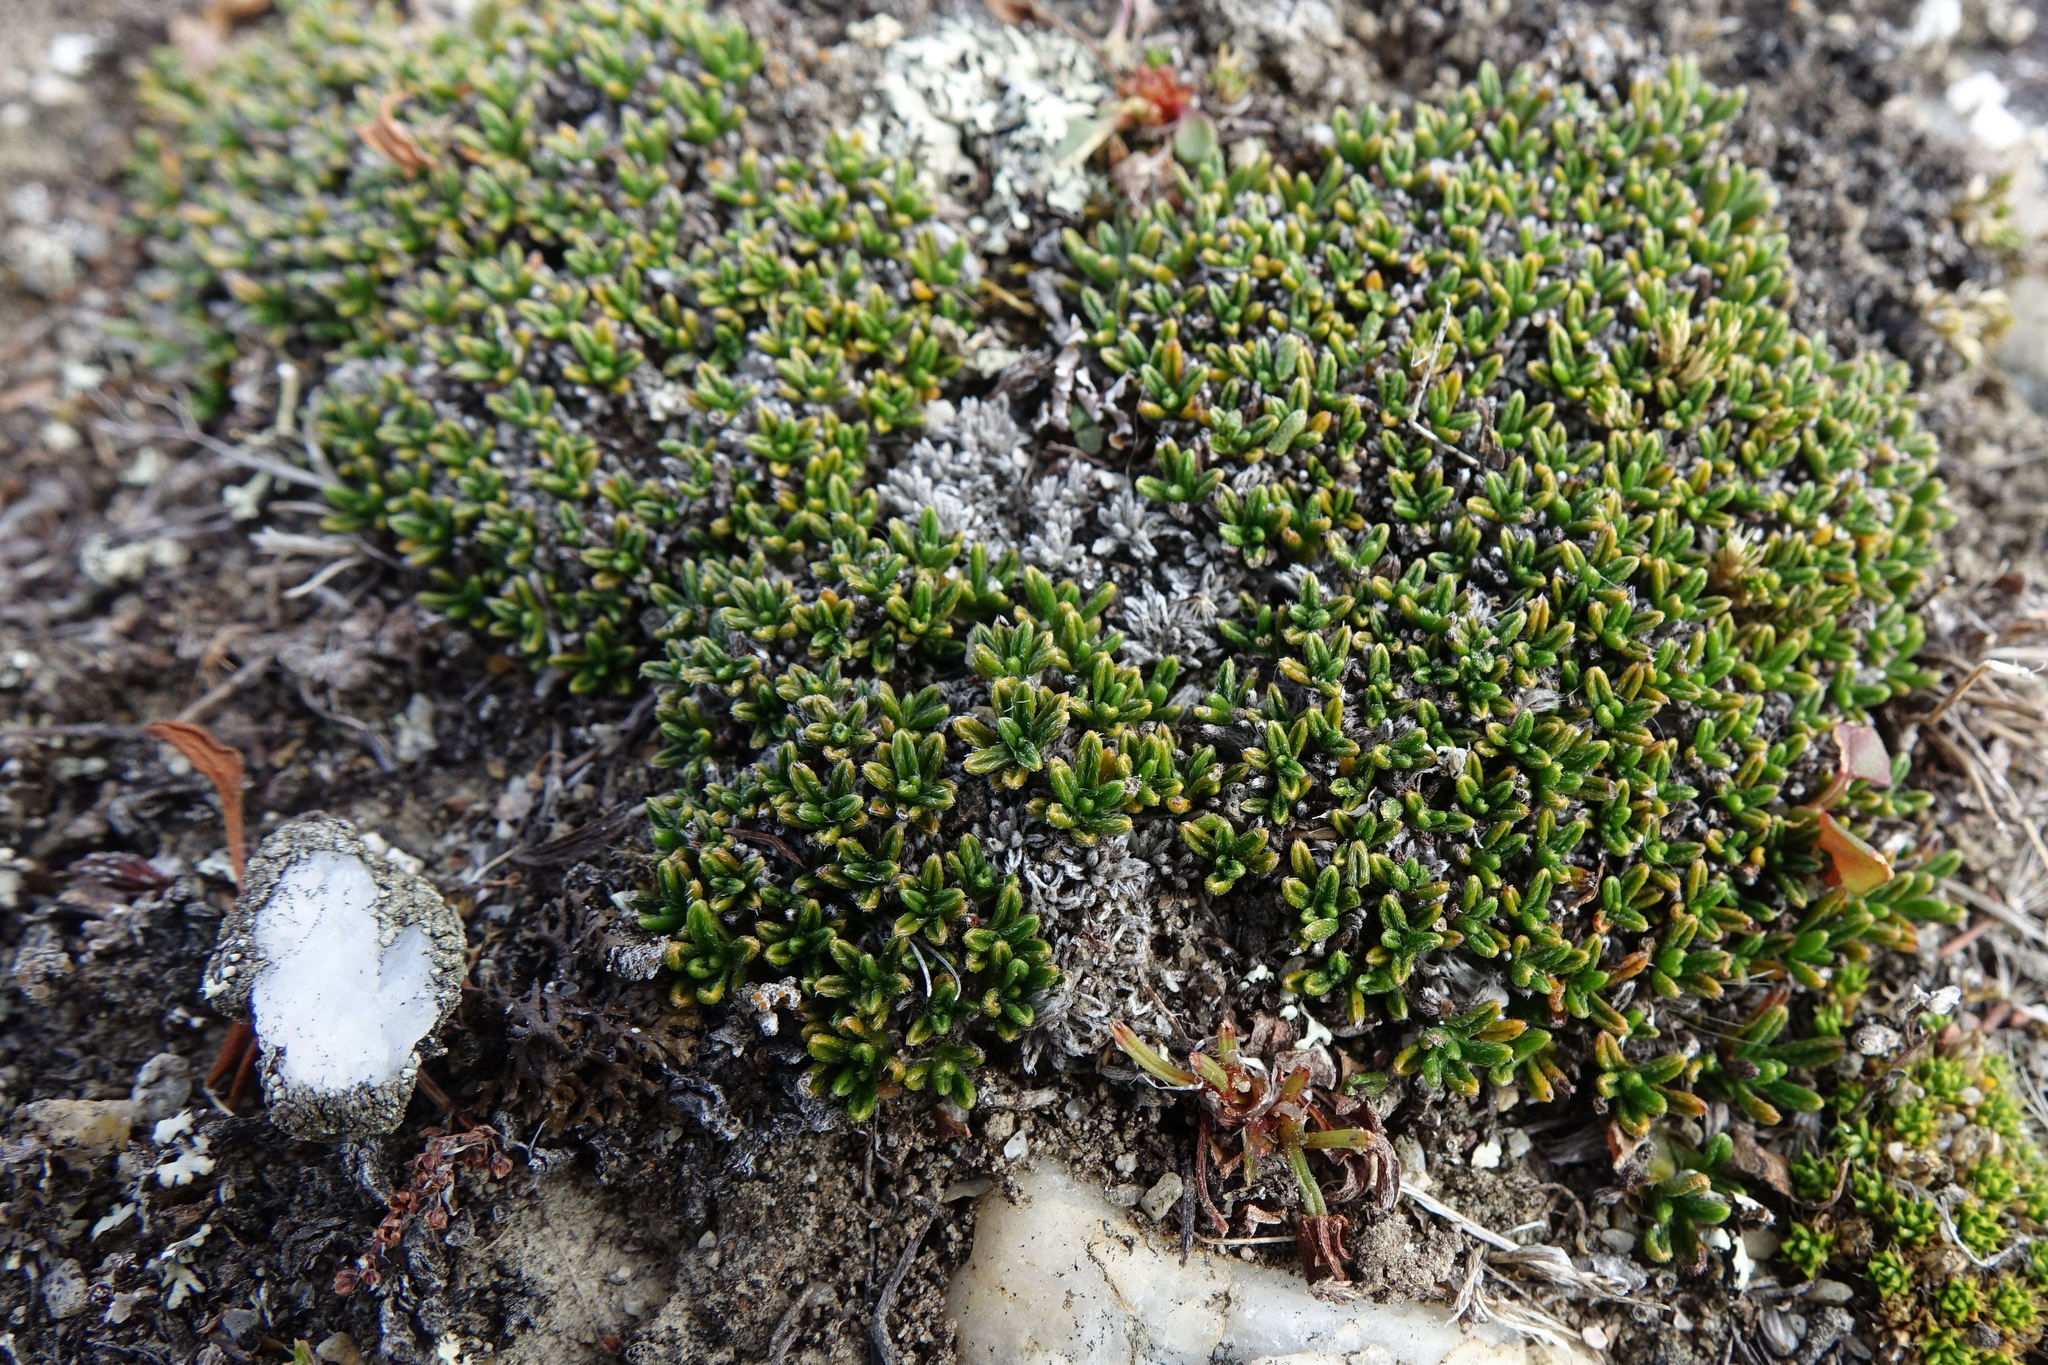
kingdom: Plantae
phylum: Tracheophyta
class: Magnoliopsida
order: Boraginales
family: Boraginaceae
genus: Myosotis
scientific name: Myosotis uniflora
